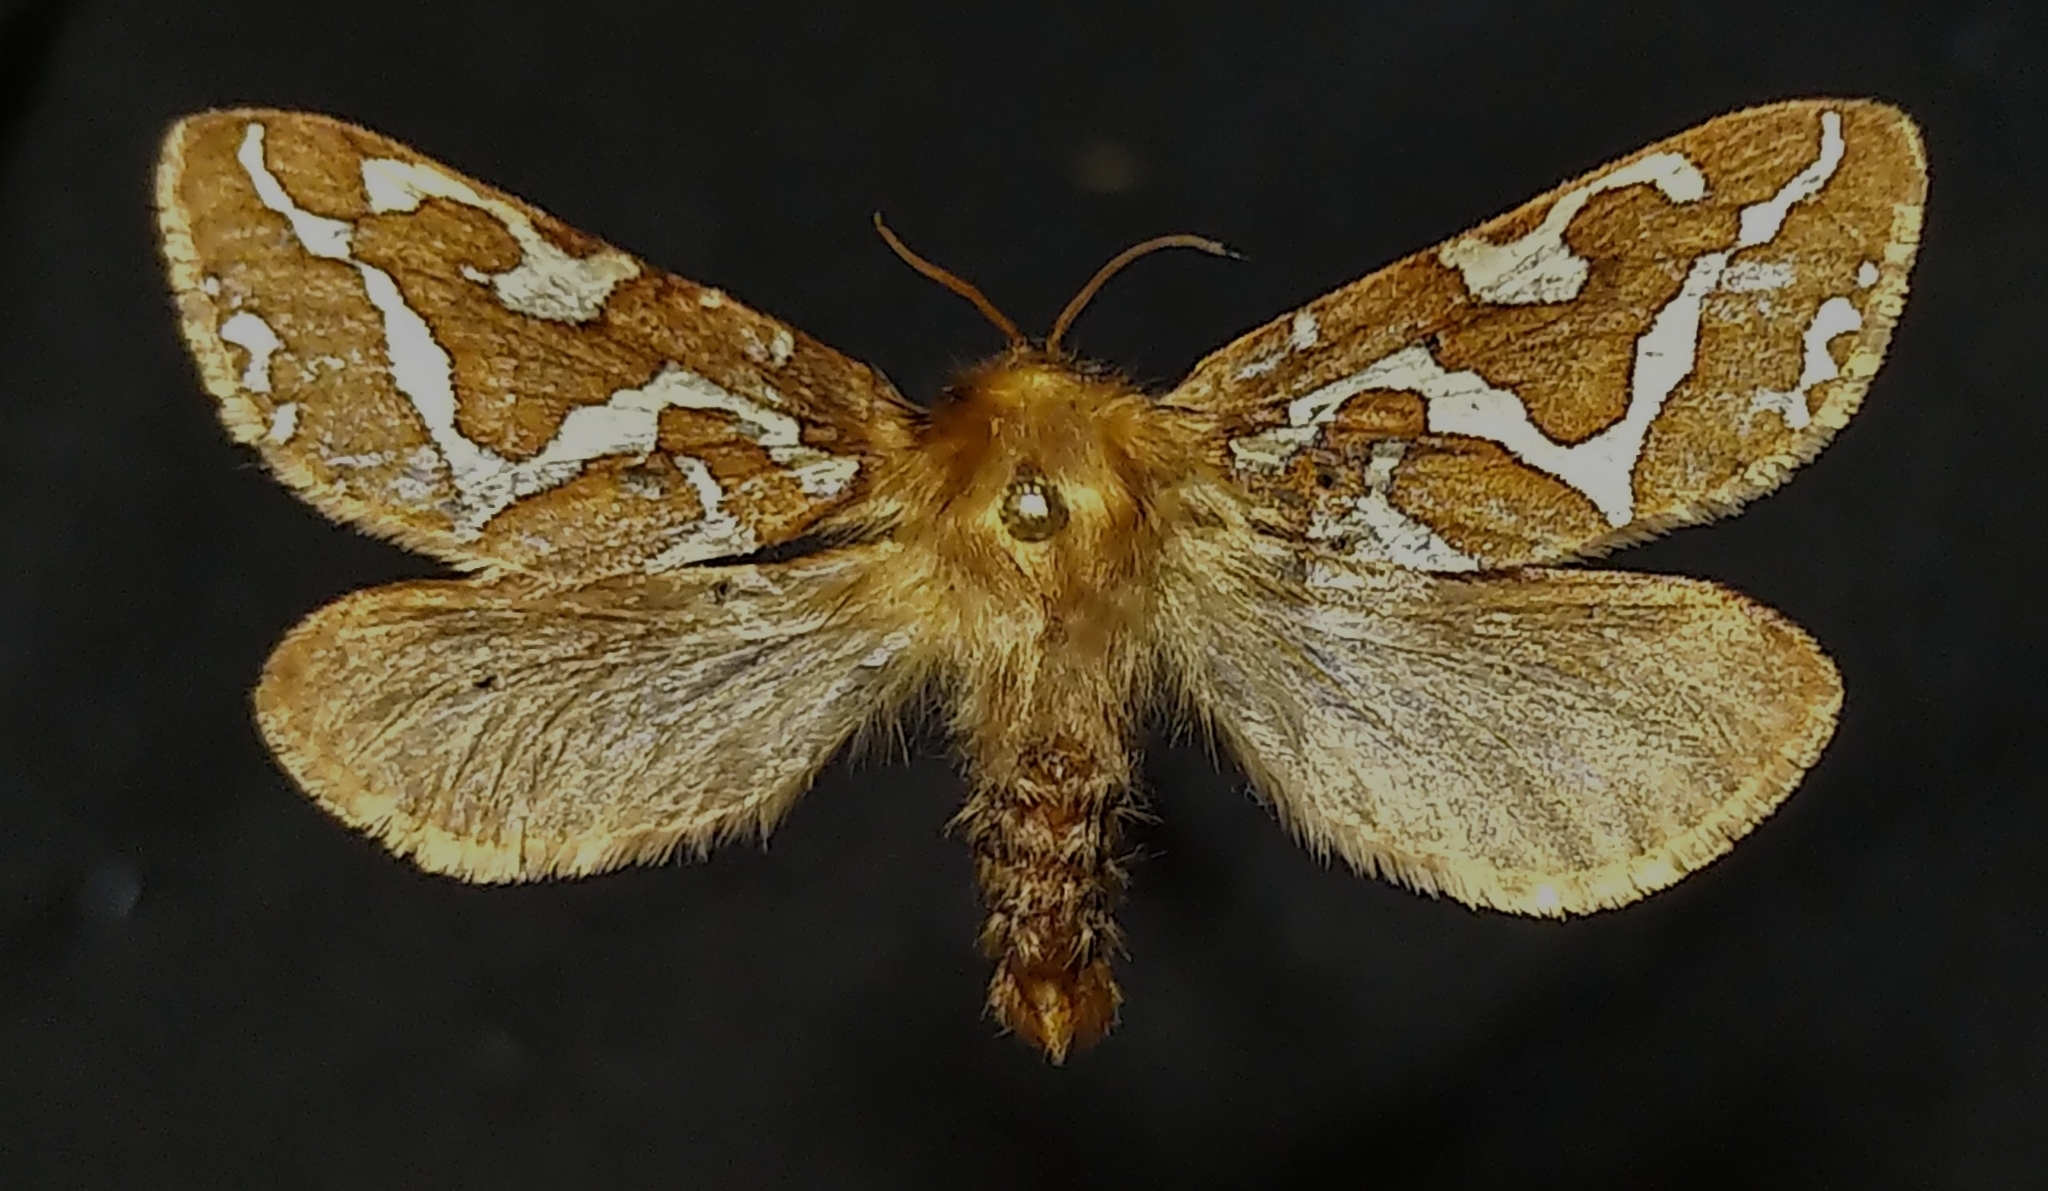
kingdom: Animalia
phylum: Arthropoda
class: Insecta
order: Lepidoptera
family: Hepialidae
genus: Gazoryctra
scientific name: Gazoryctra hyperboreus
